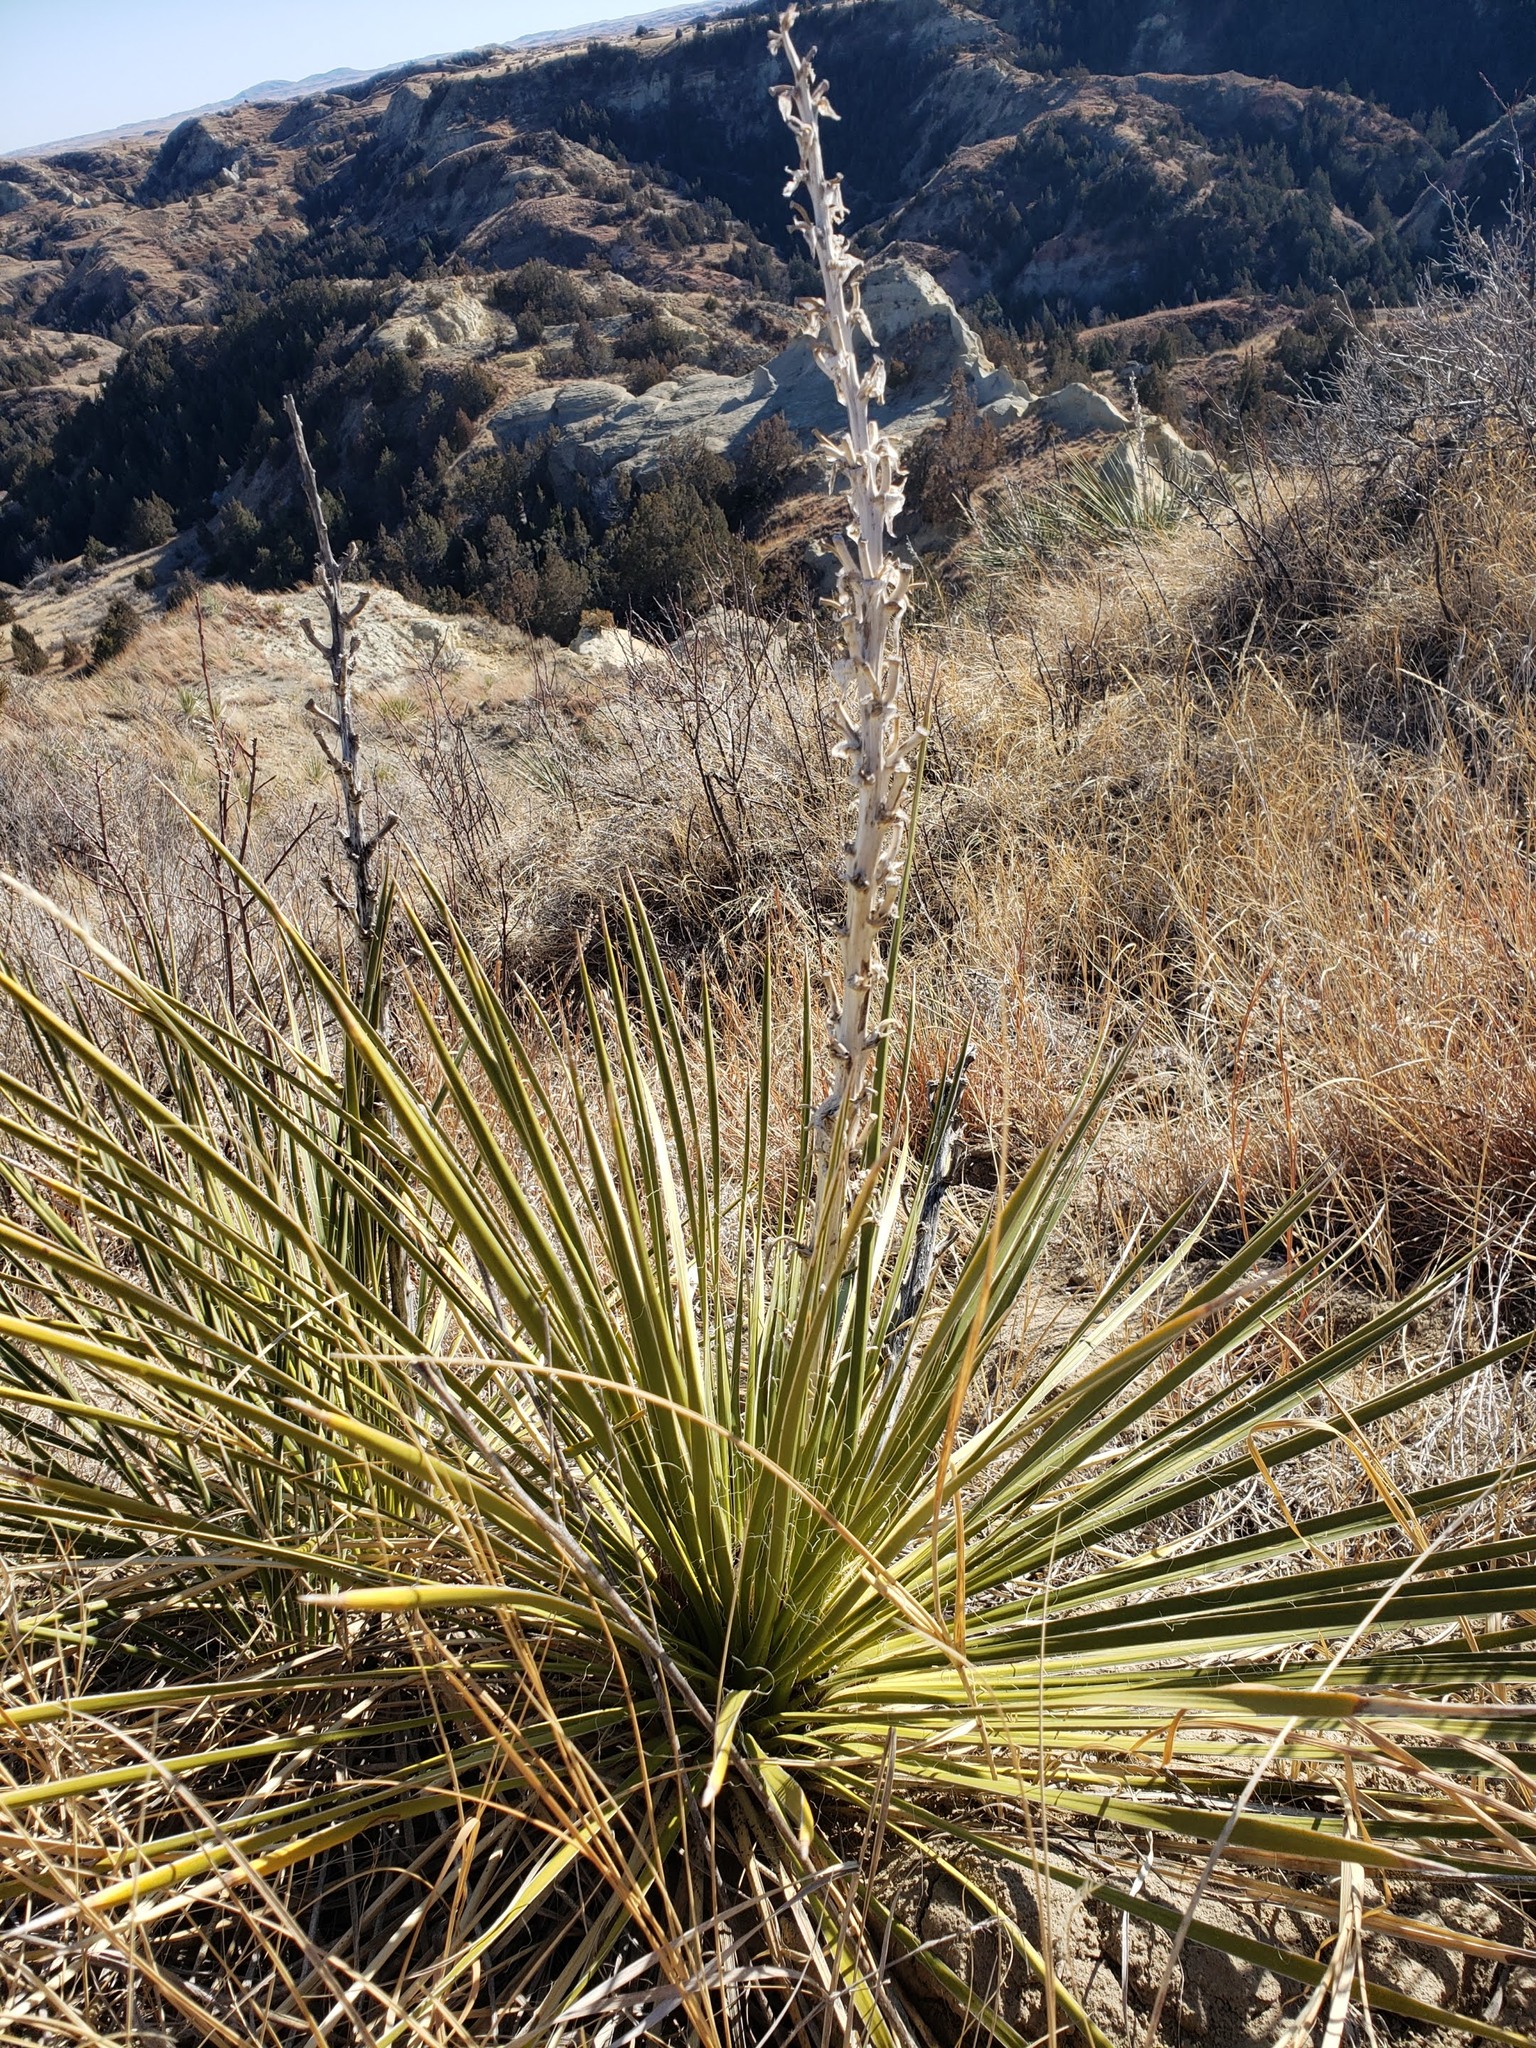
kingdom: Plantae
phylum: Tracheophyta
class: Liliopsida
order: Asparagales
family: Asparagaceae
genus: Yucca
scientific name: Yucca glauca
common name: Great plains yucca
